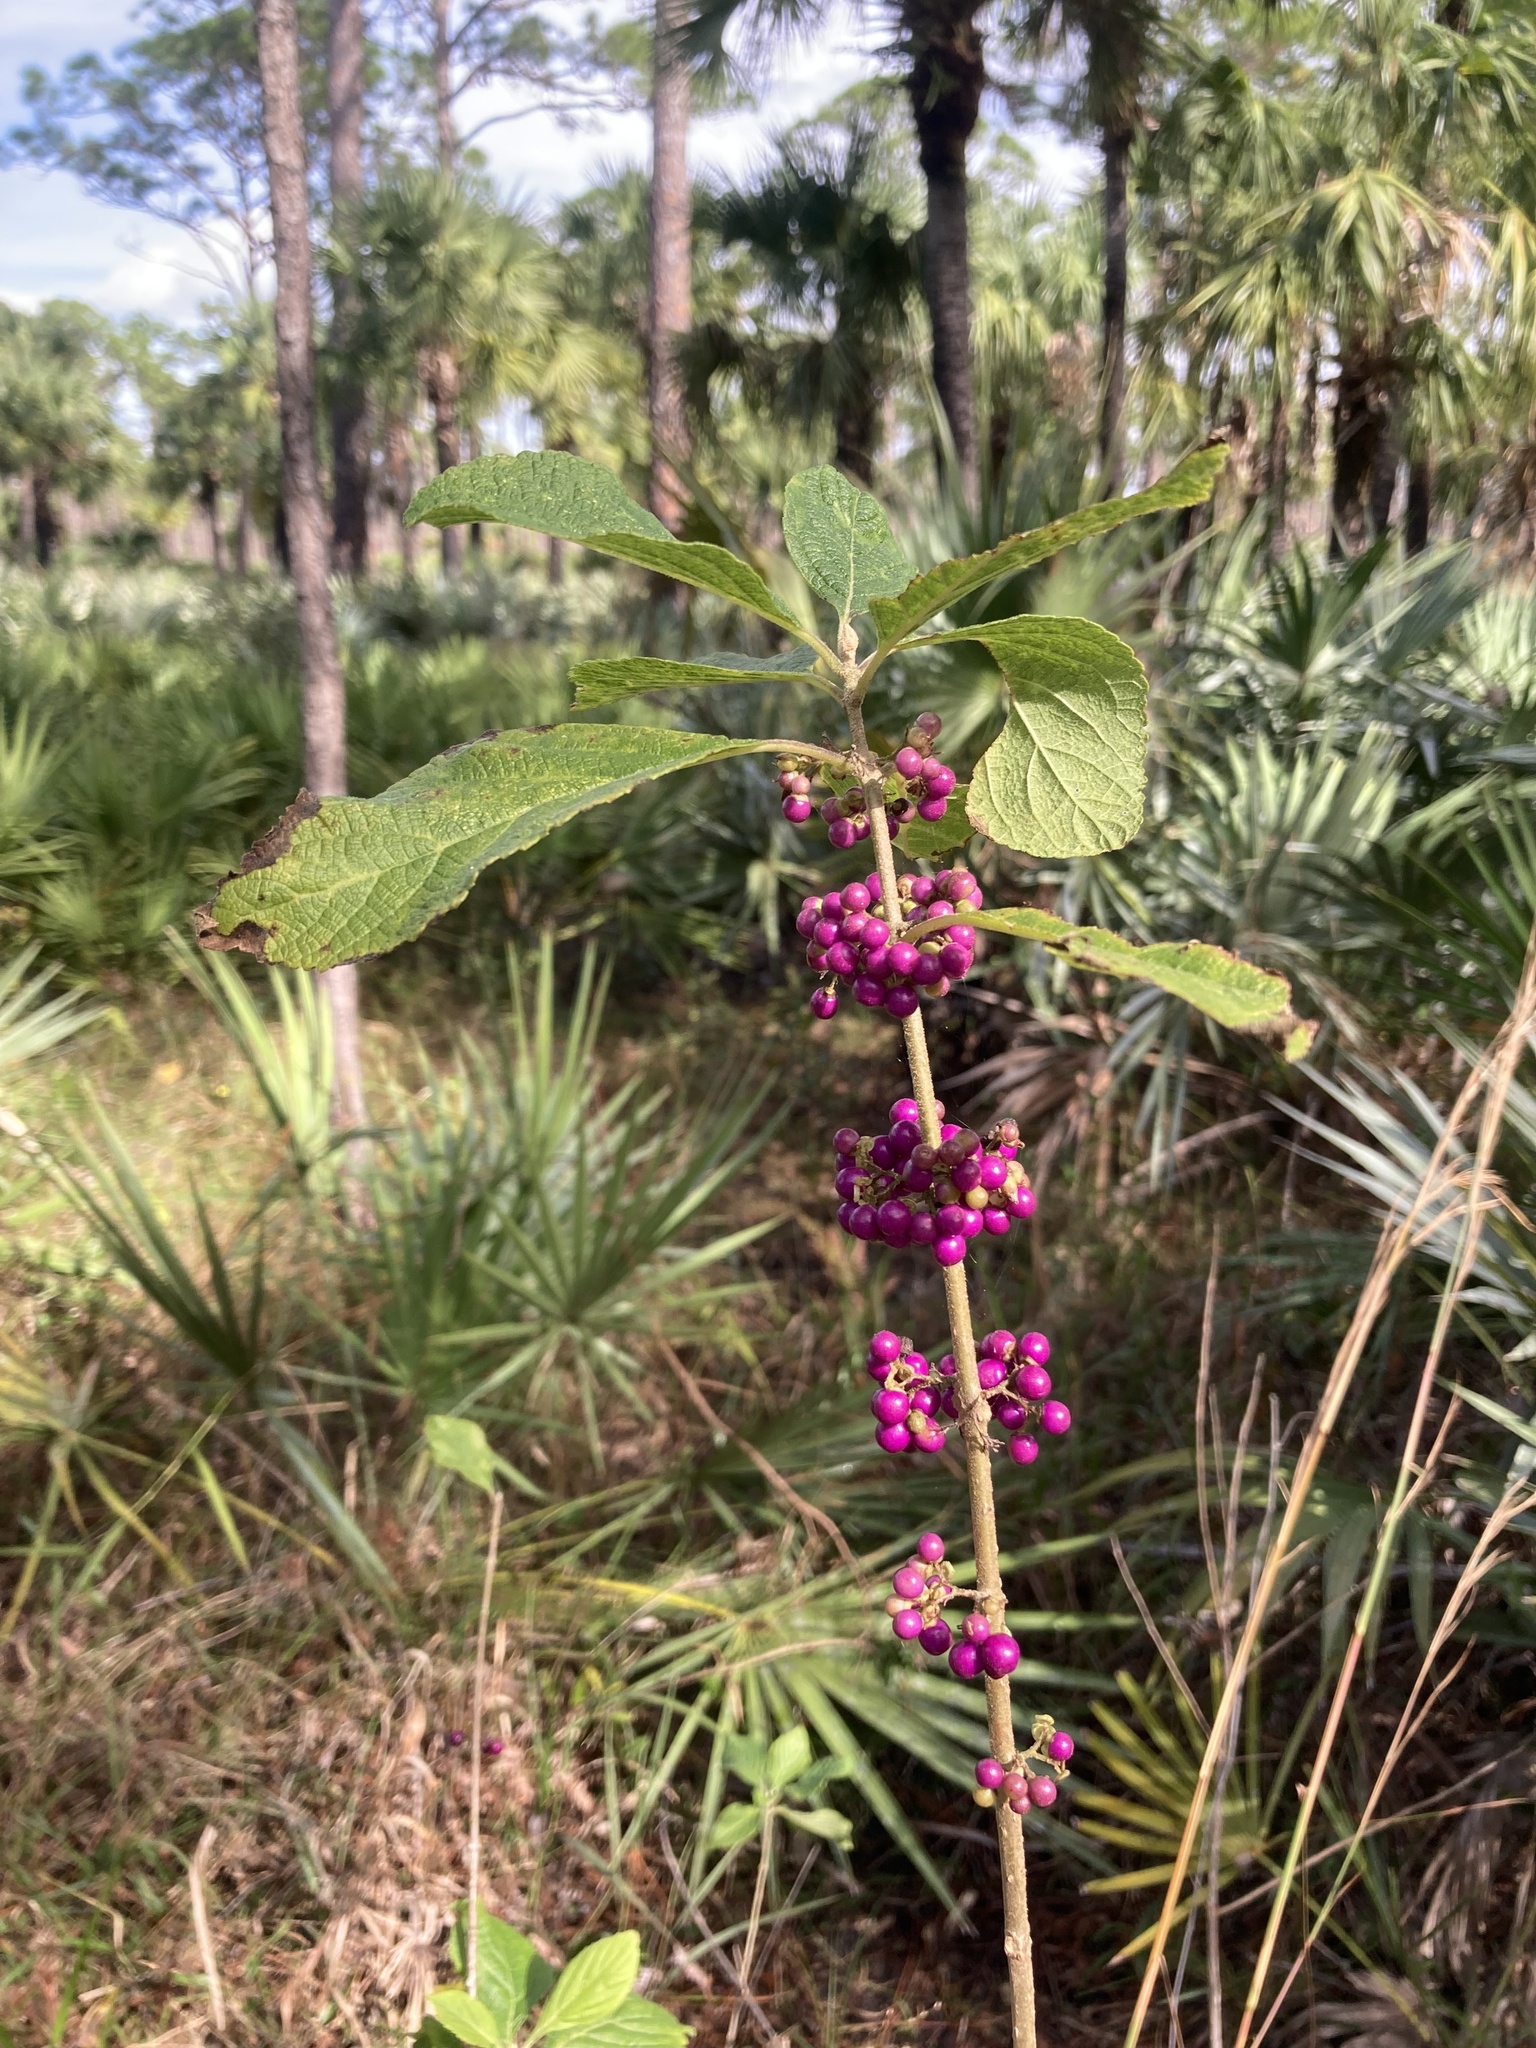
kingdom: Plantae
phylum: Tracheophyta
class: Magnoliopsida
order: Lamiales
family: Lamiaceae
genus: Callicarpa
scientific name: Callicarpa americana
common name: American beautyberry
